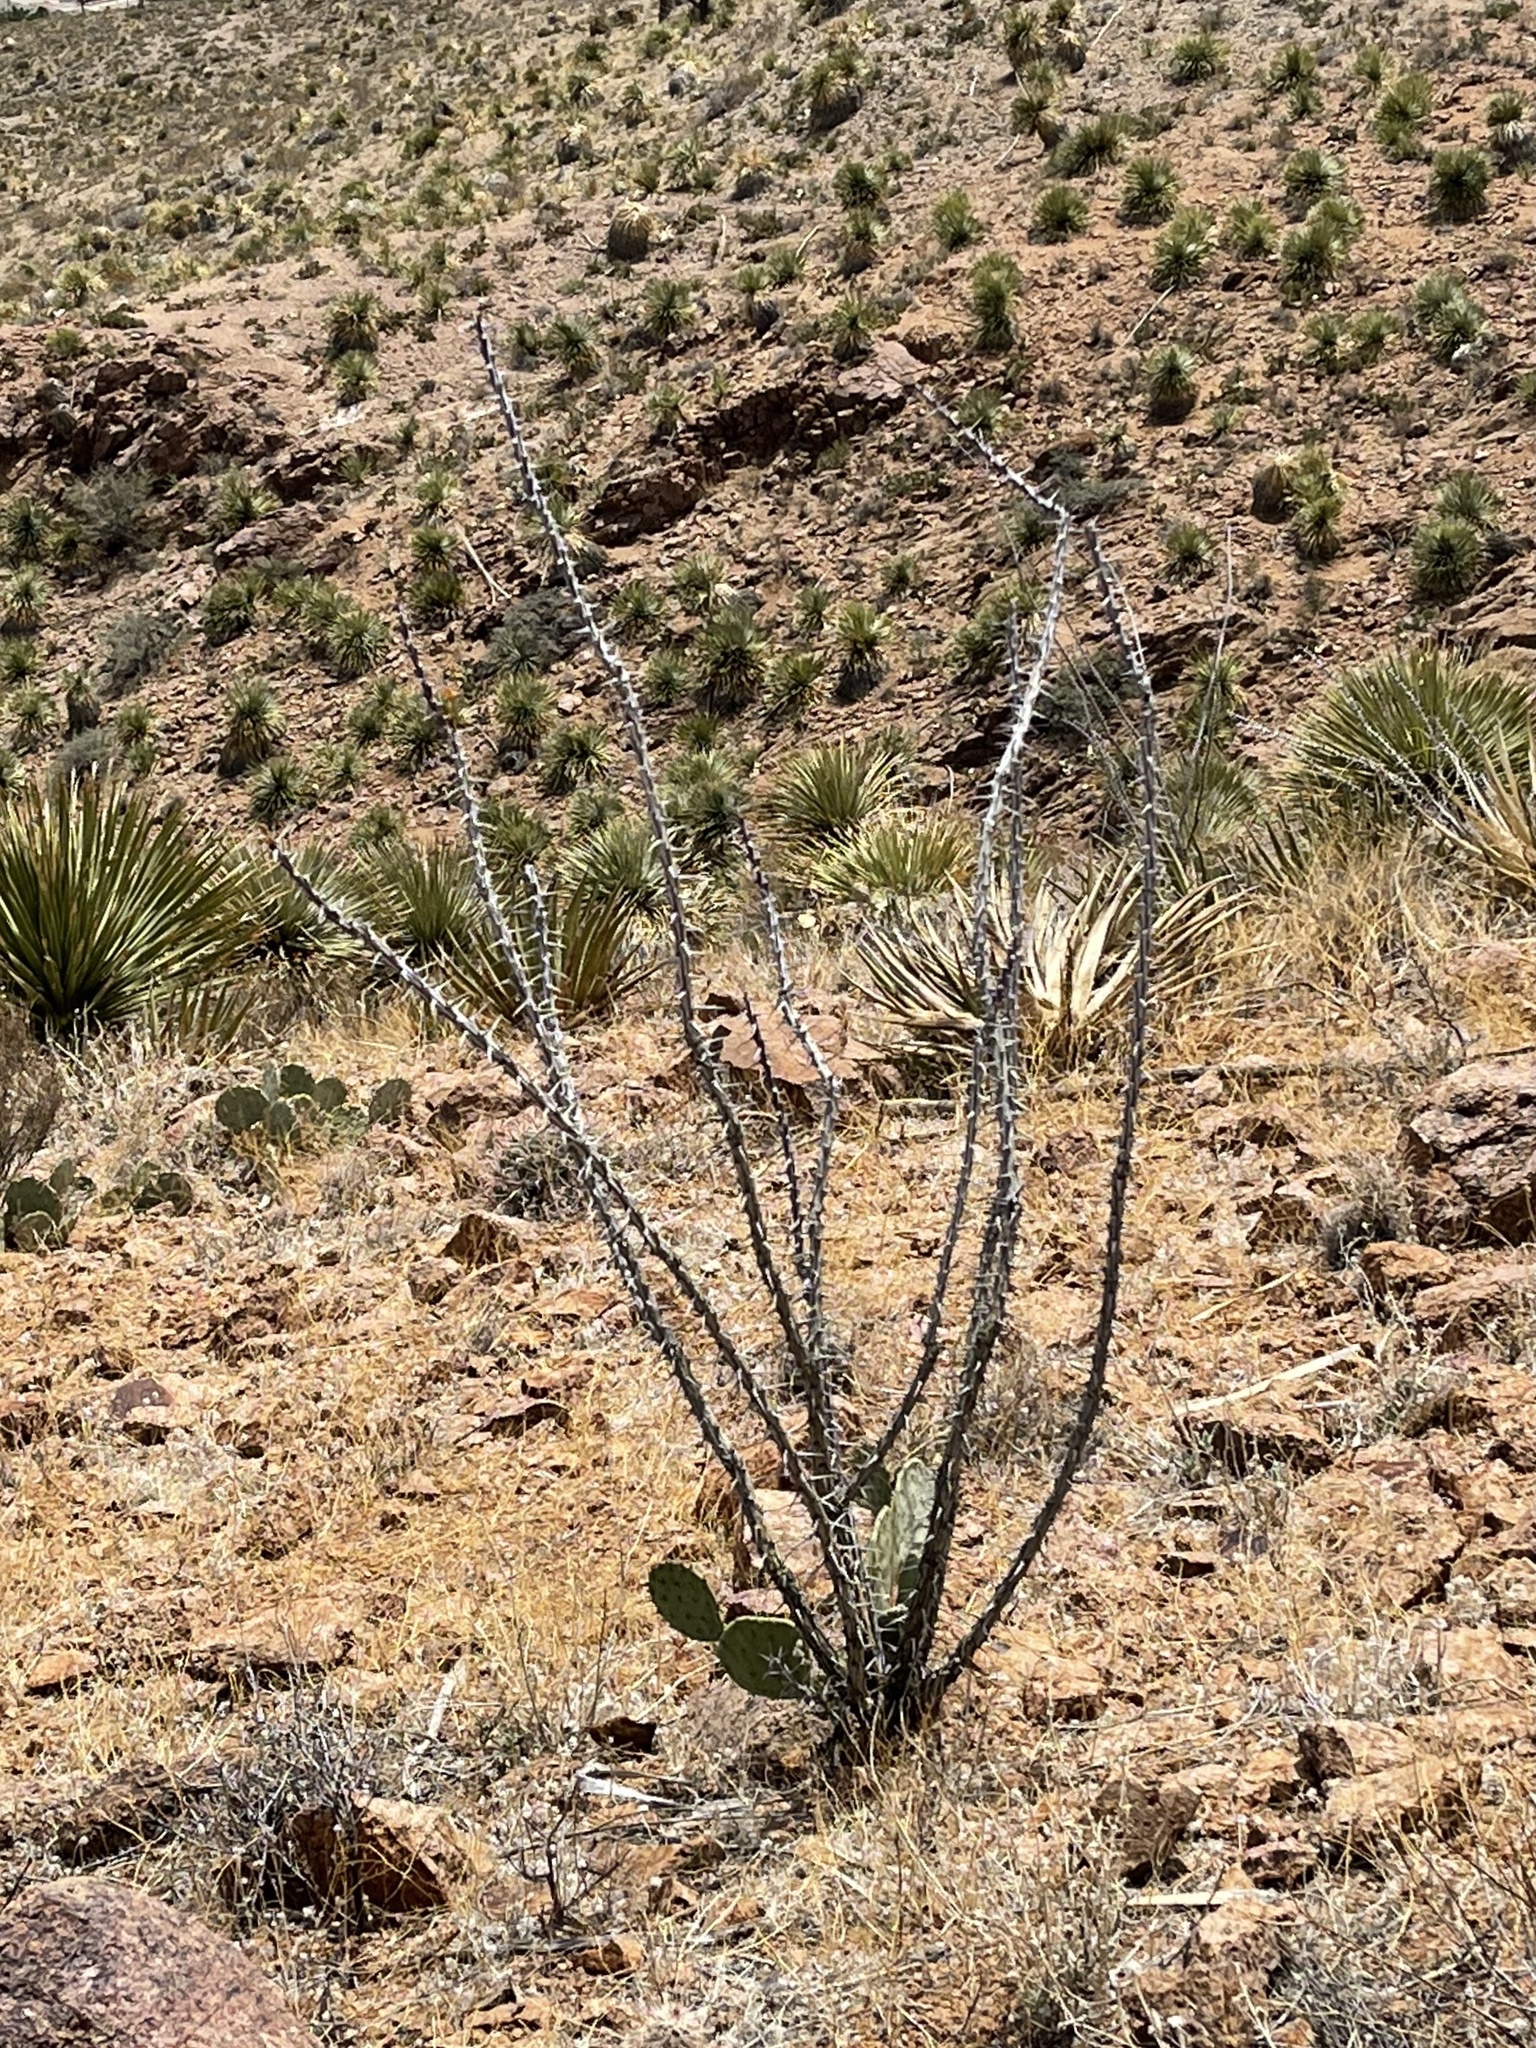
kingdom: Plantae
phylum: Tracheophyta
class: Magnoliopsida
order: Ericales
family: Fouquieriaceae
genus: Fouquieria
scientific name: Fouquieria splendens
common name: Vine-cactus
